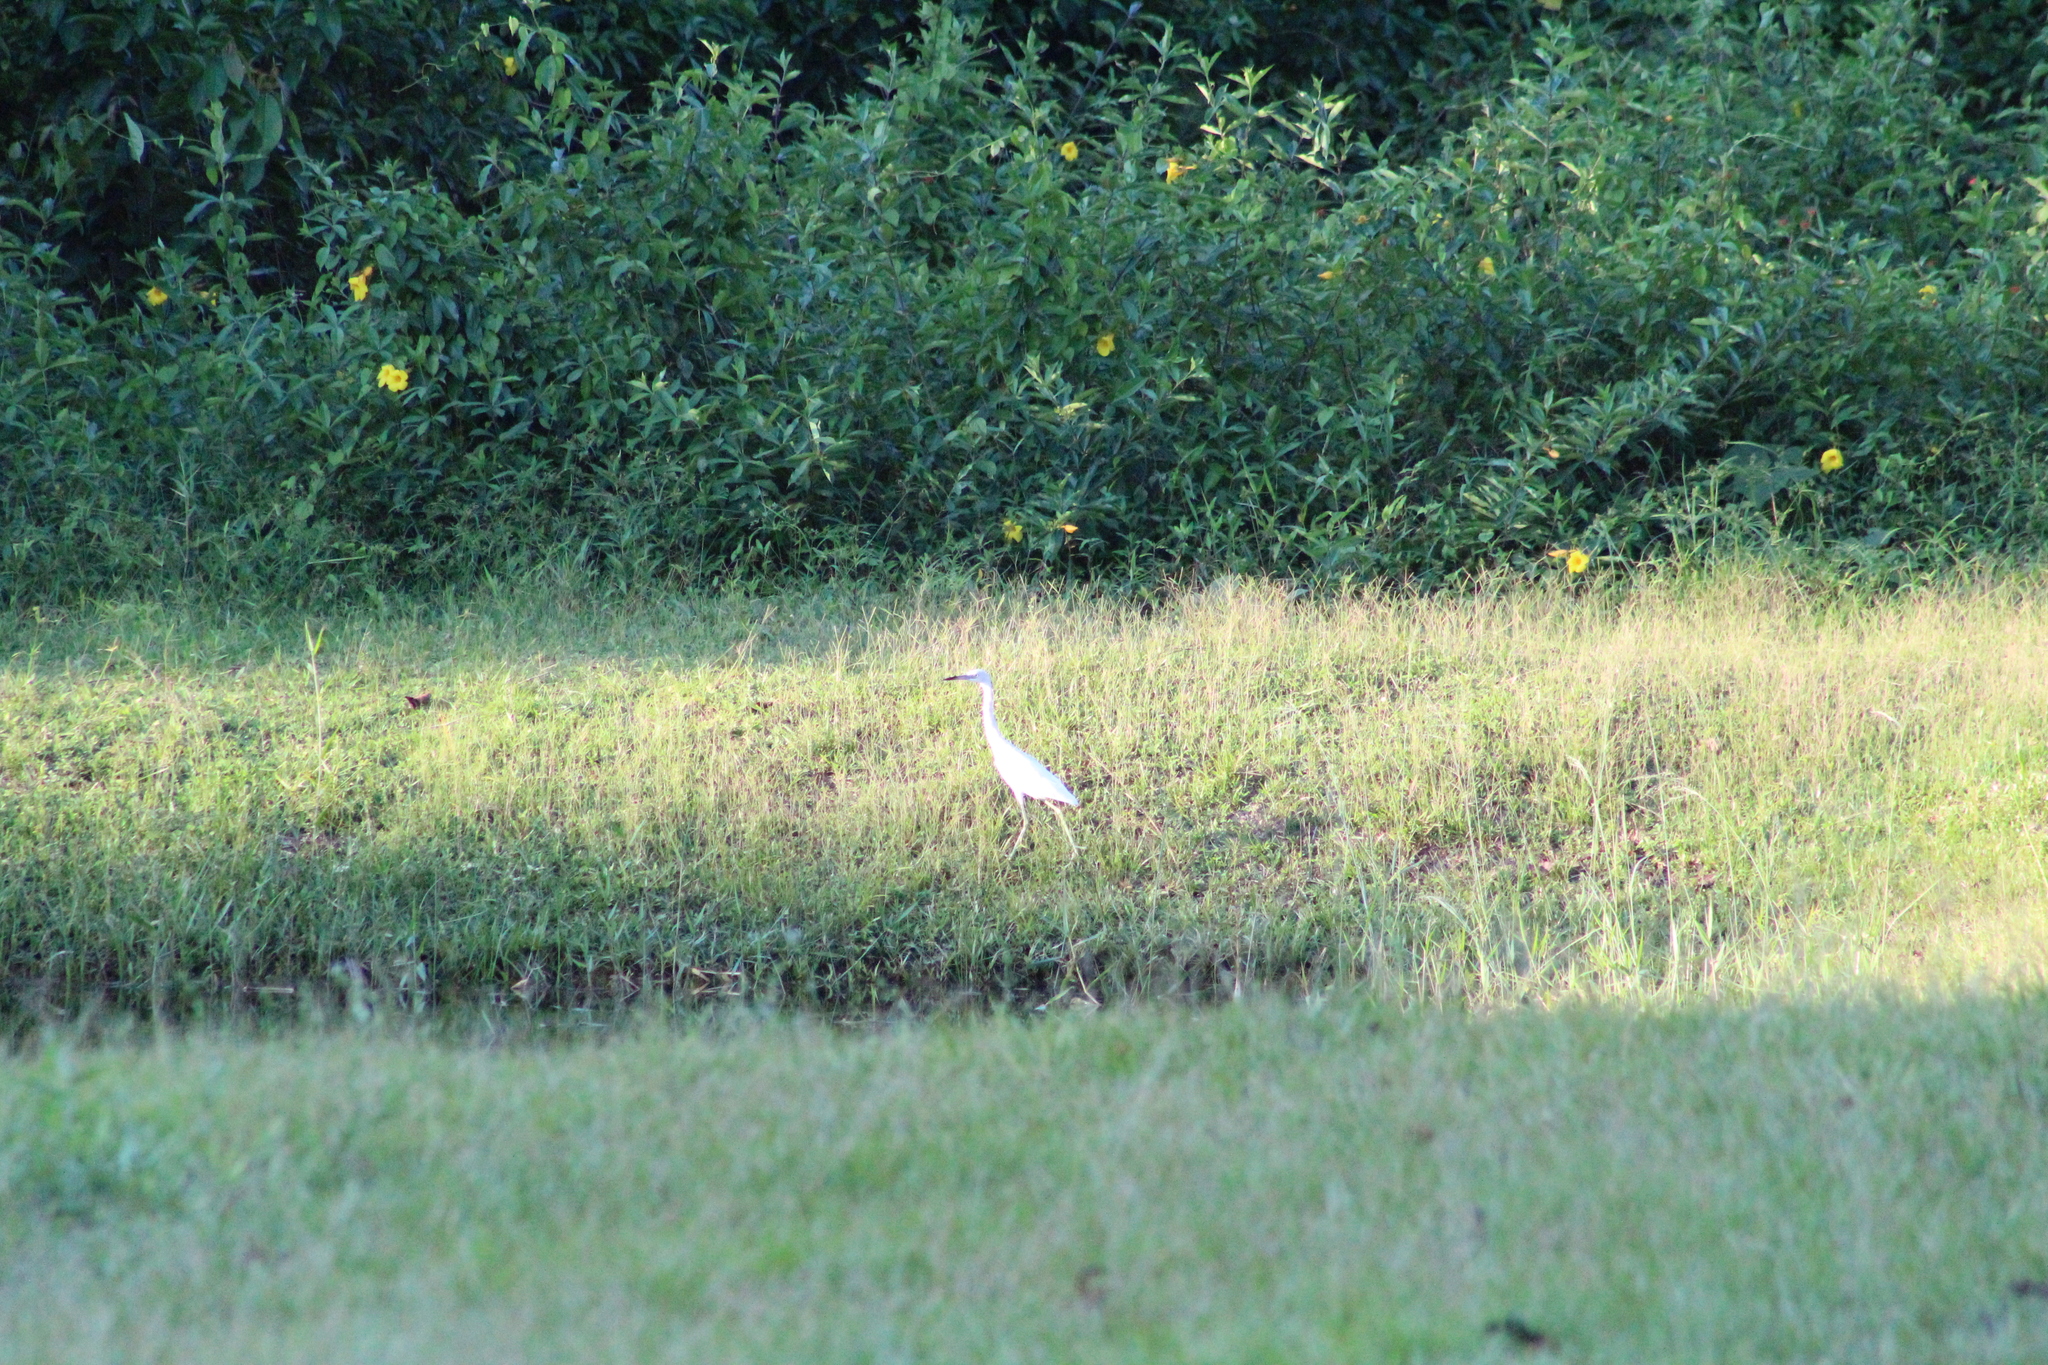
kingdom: Animalia
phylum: Chordata
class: Aves
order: Pelecaniformes
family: Ardeidae
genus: Egretta
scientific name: Egretta caerulea
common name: Little blue heron
